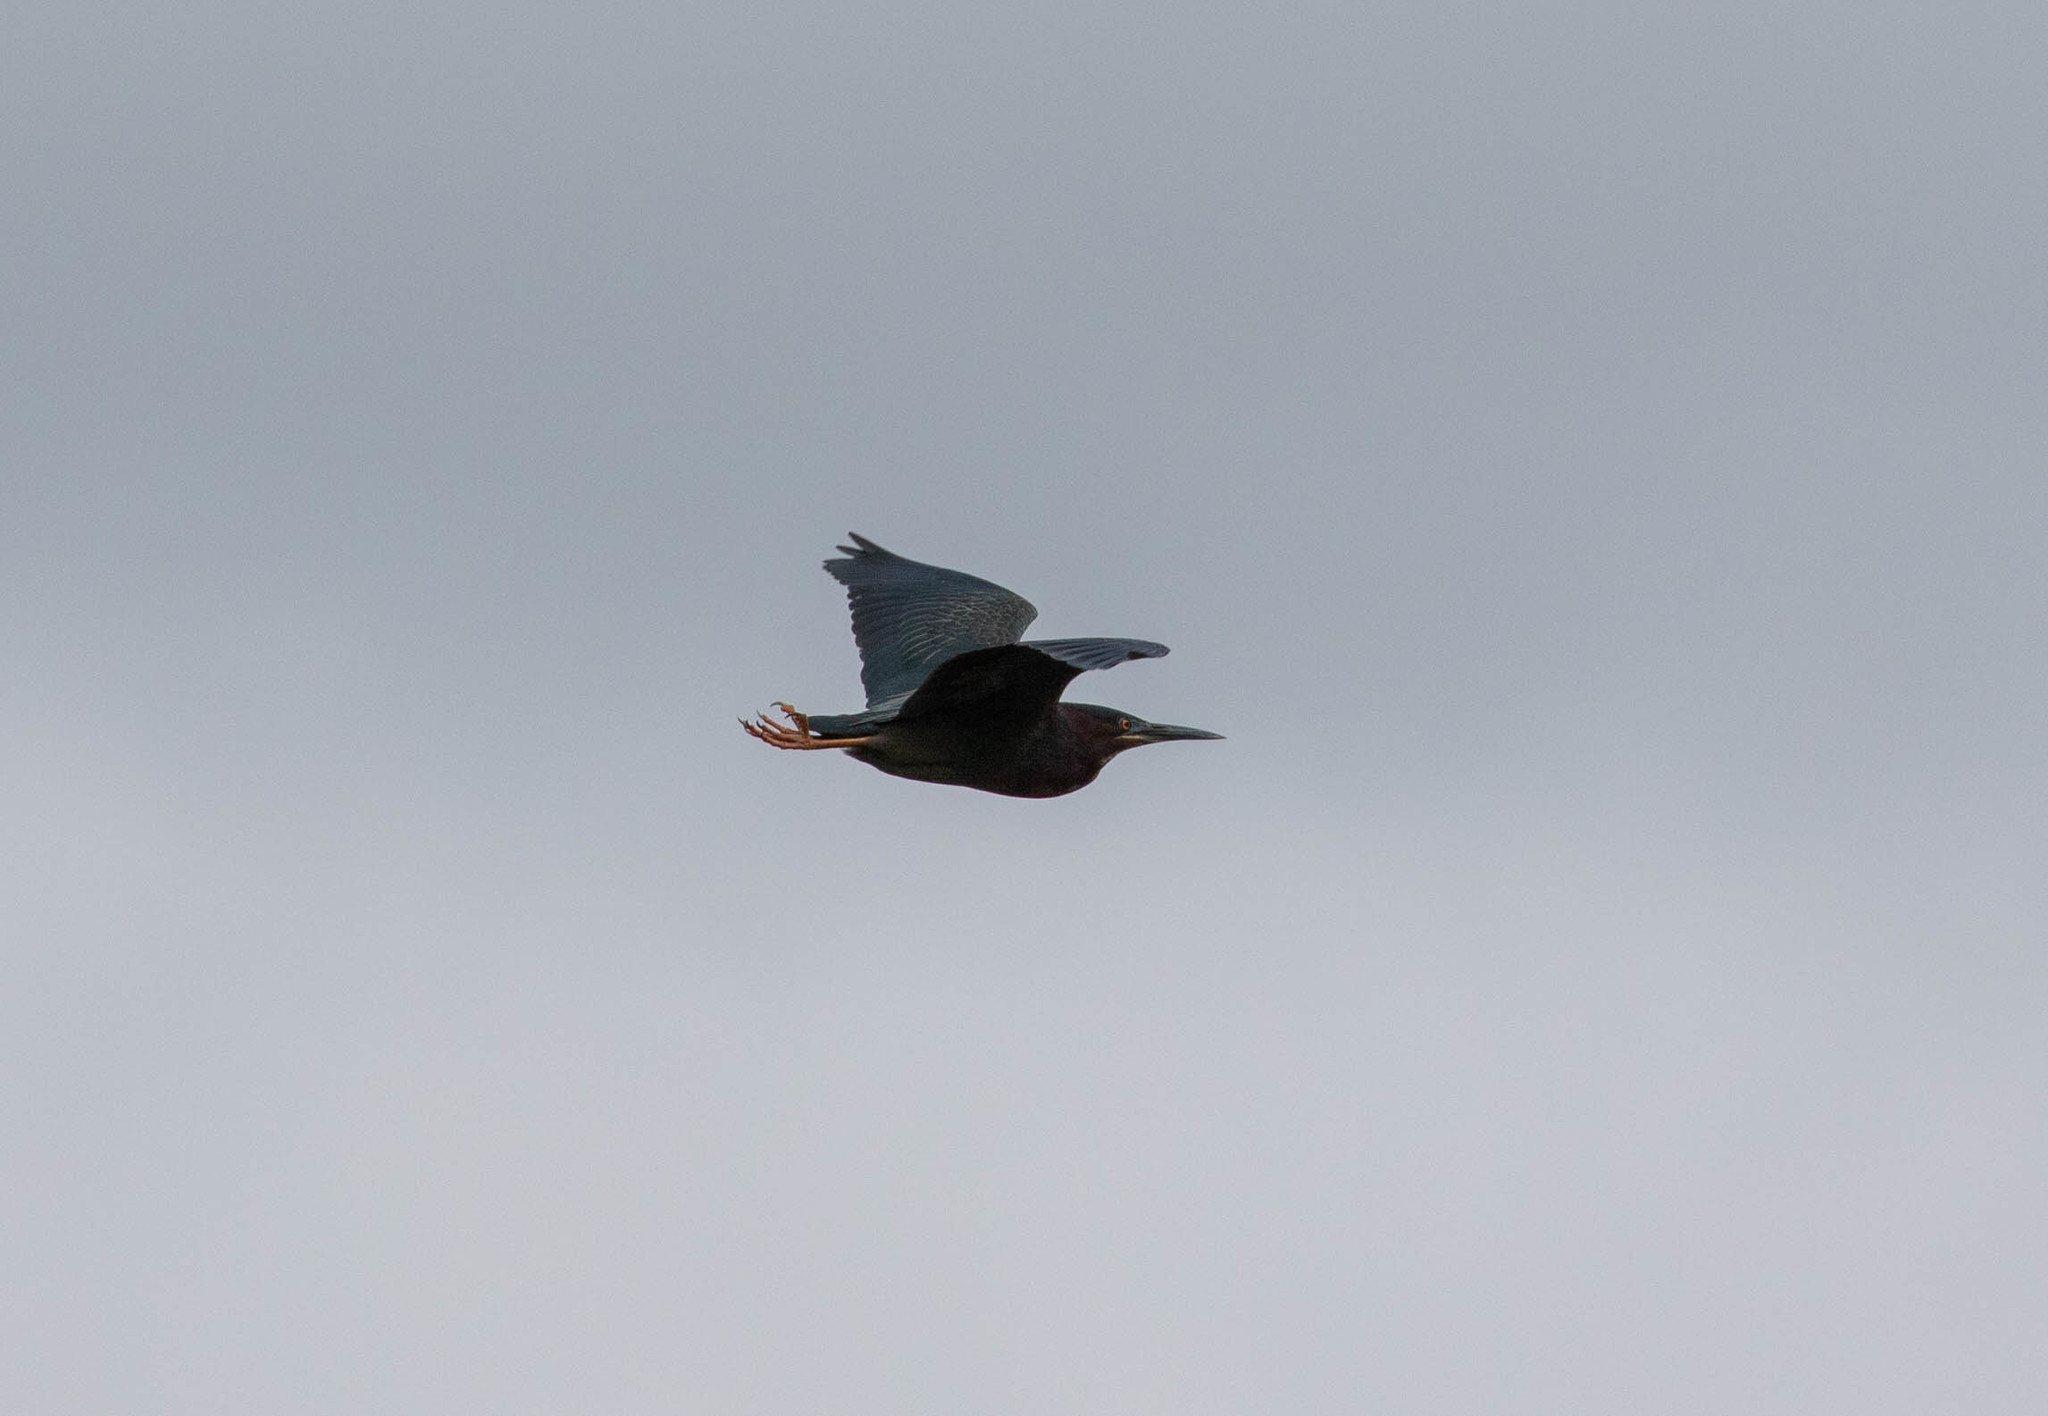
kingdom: Animalia
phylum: Chordata
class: Aves
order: Pelecaniformes
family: Ardeidae
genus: Butorides
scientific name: Butorides virescens
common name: Green heron
